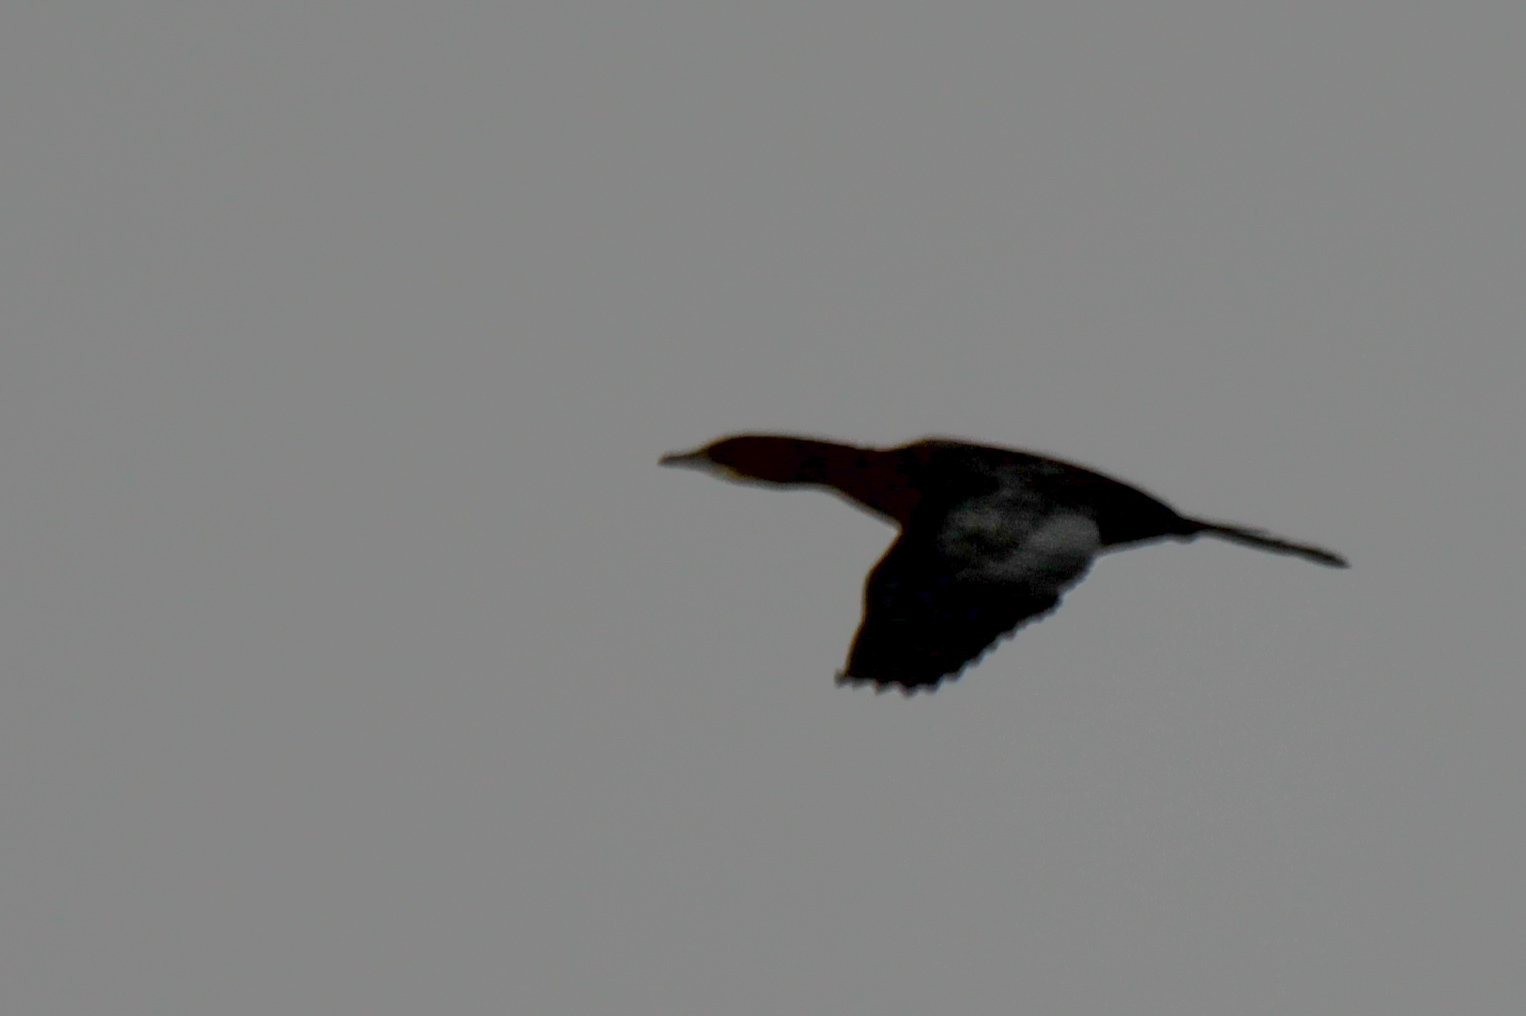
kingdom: Animalia
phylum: Chordata
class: Aves
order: Suliformes
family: Phalacrocoracidae
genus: Microcarbo
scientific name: Microcarbo pygmaeus
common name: Pygmy cormorant
